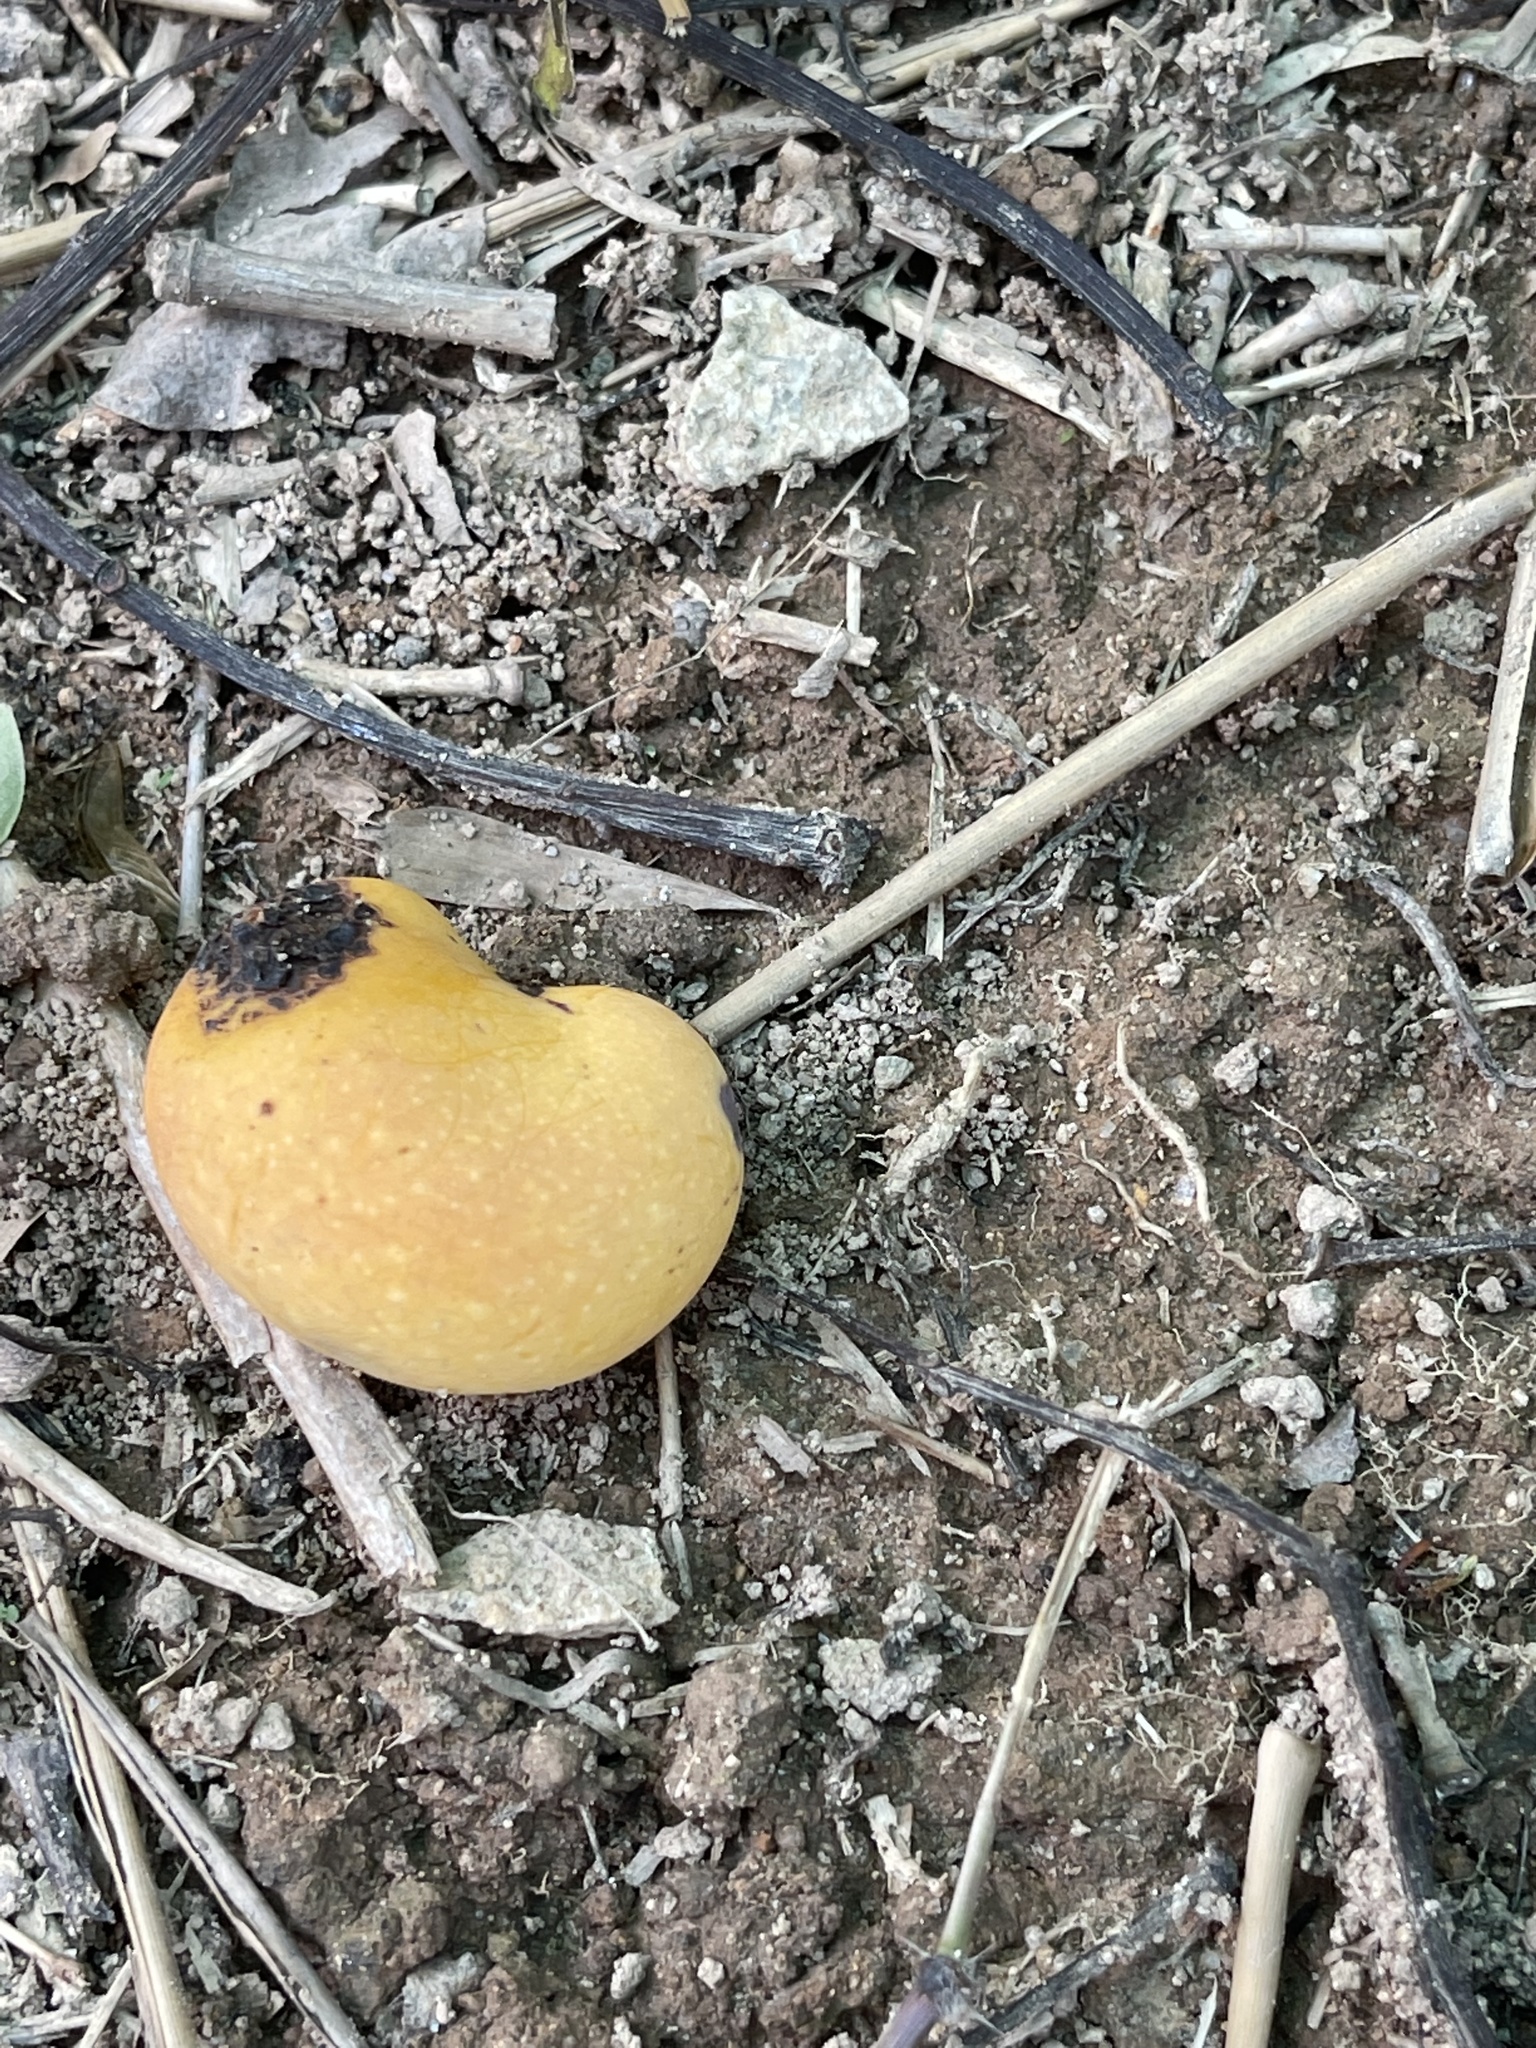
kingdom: Plantae
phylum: Tracheophyta
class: Magnoliopsida
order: Sapindales
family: Anacardiaceae
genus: Mangifera
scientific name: Mangifera indica
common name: Mango
